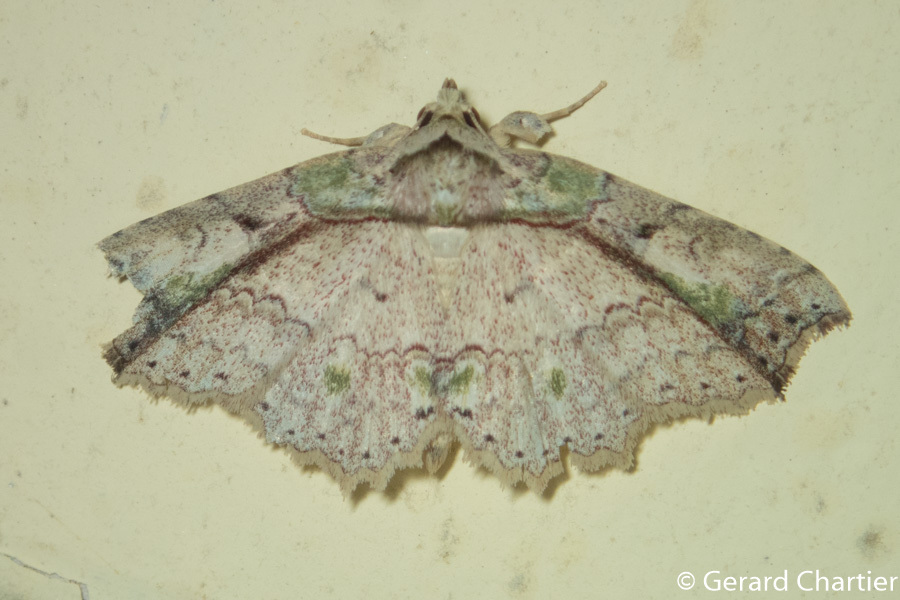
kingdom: Animalia
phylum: Arthropoda
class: Insecta
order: Lepidoptera
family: Erebidae
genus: Tamba
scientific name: Tamba mnionomera
